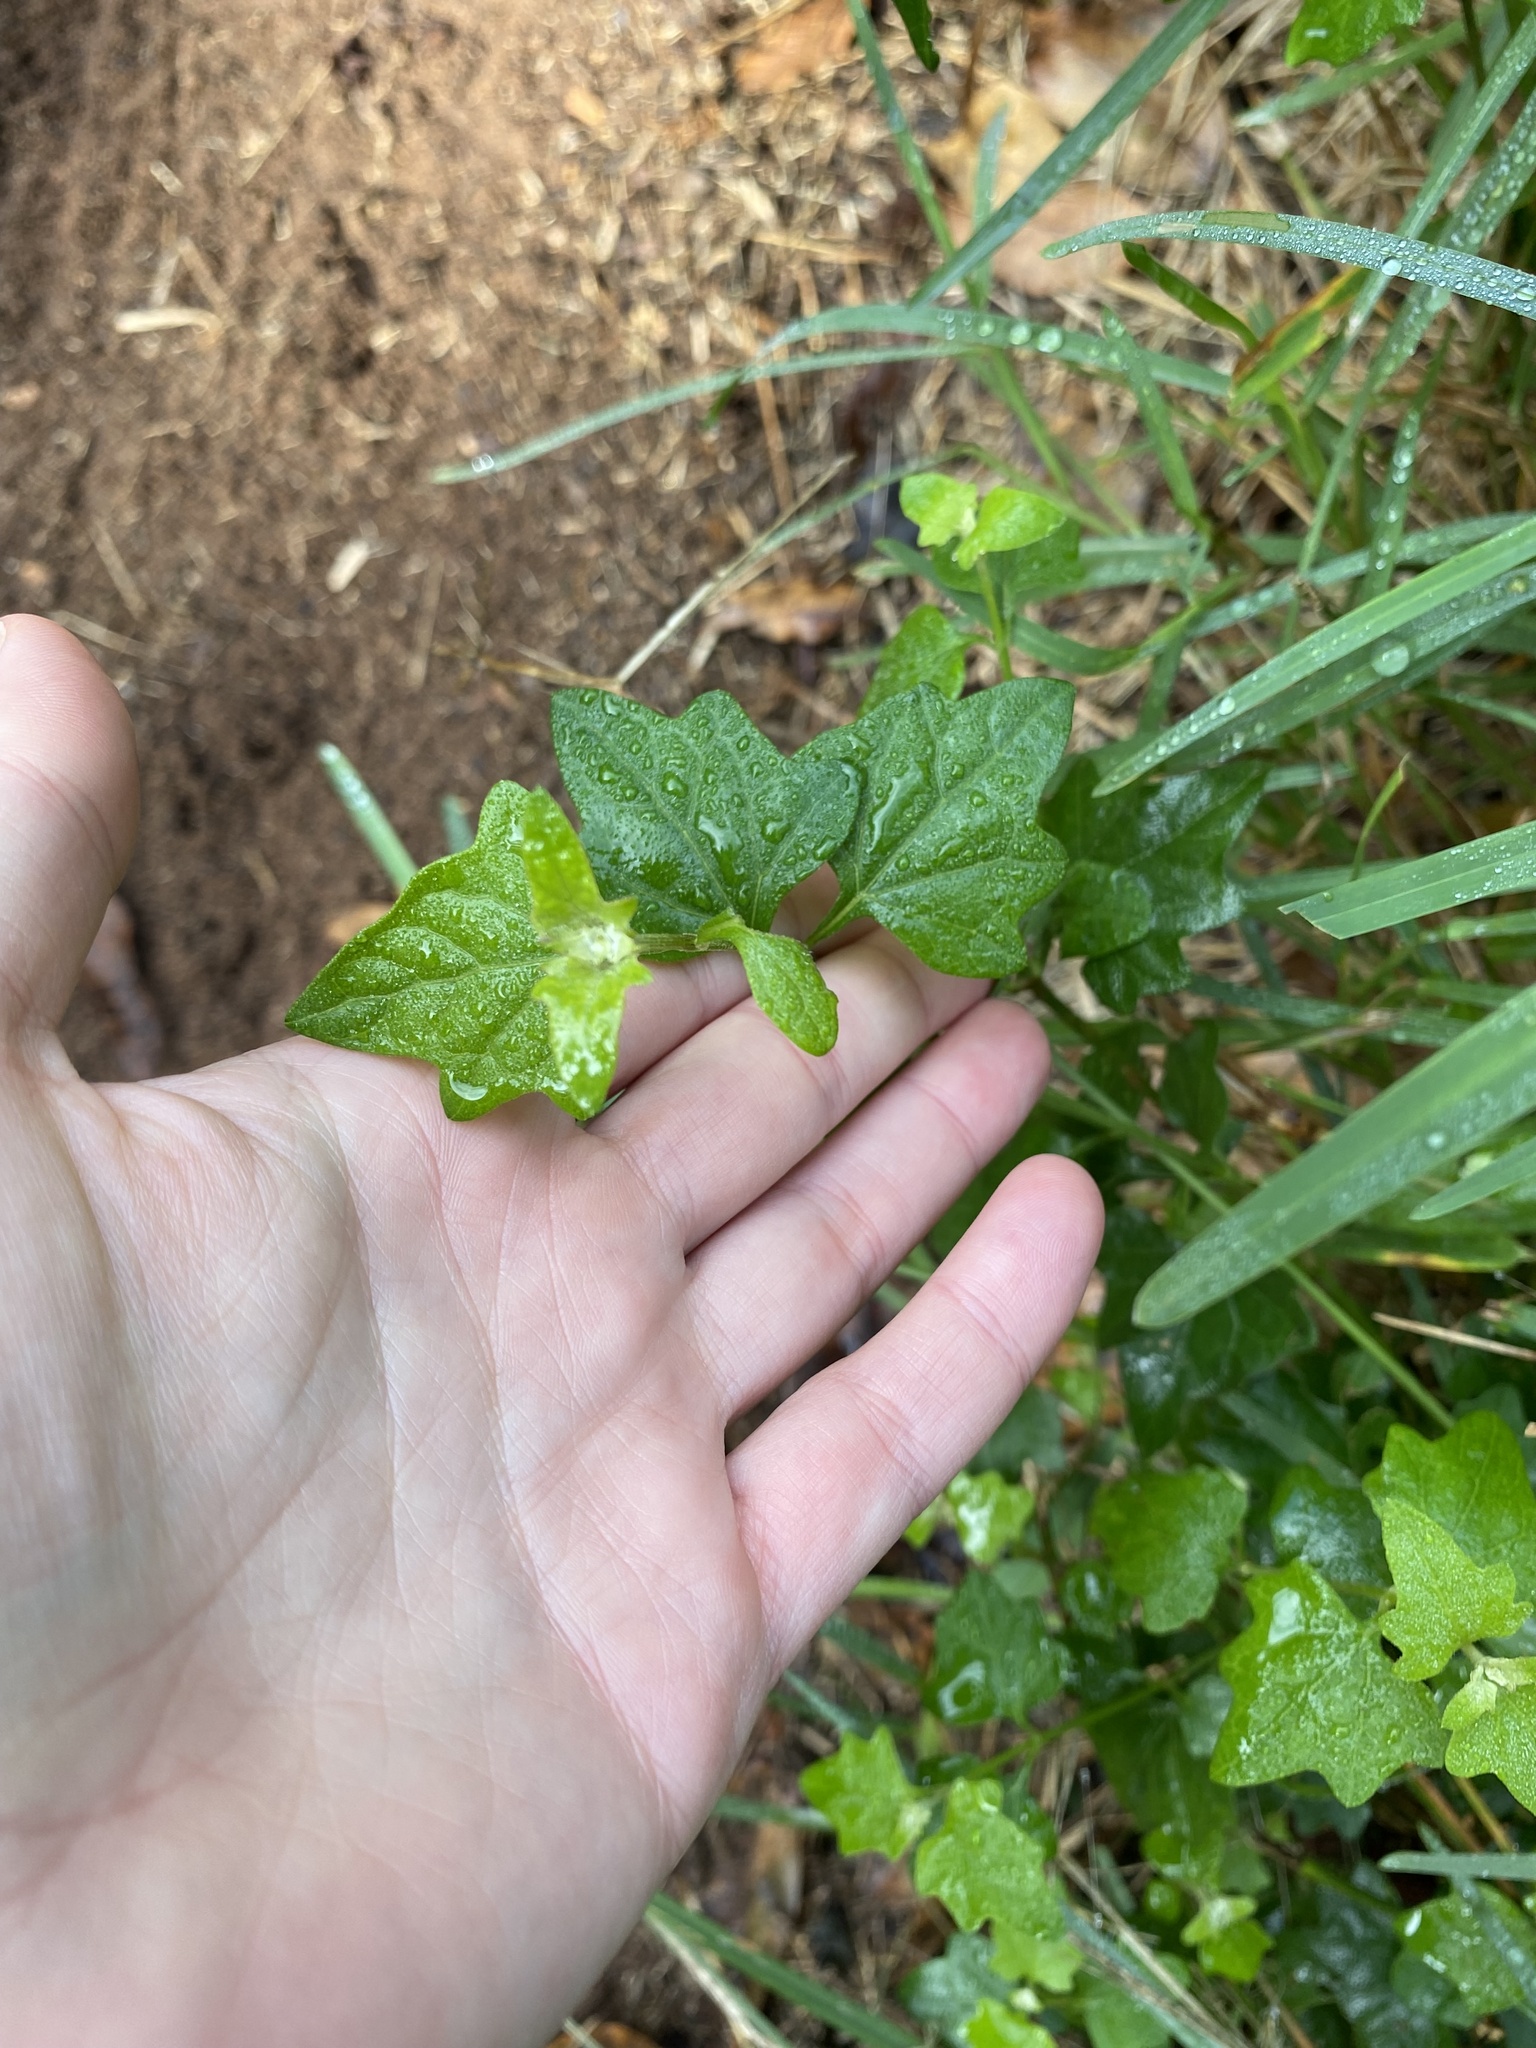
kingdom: Plantae
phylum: Tracheophyta
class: Magnoliopsida
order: Asterales
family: Asteraceae
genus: Microglossa
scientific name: Microglossa mespilifolia
